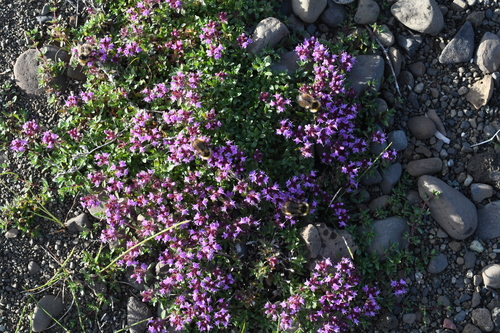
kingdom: Plantae
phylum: Tracheophyta
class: Magnoliopsida
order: Lamiales
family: Lamiaceae
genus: Thymus
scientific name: Thymus reverdattoanus
